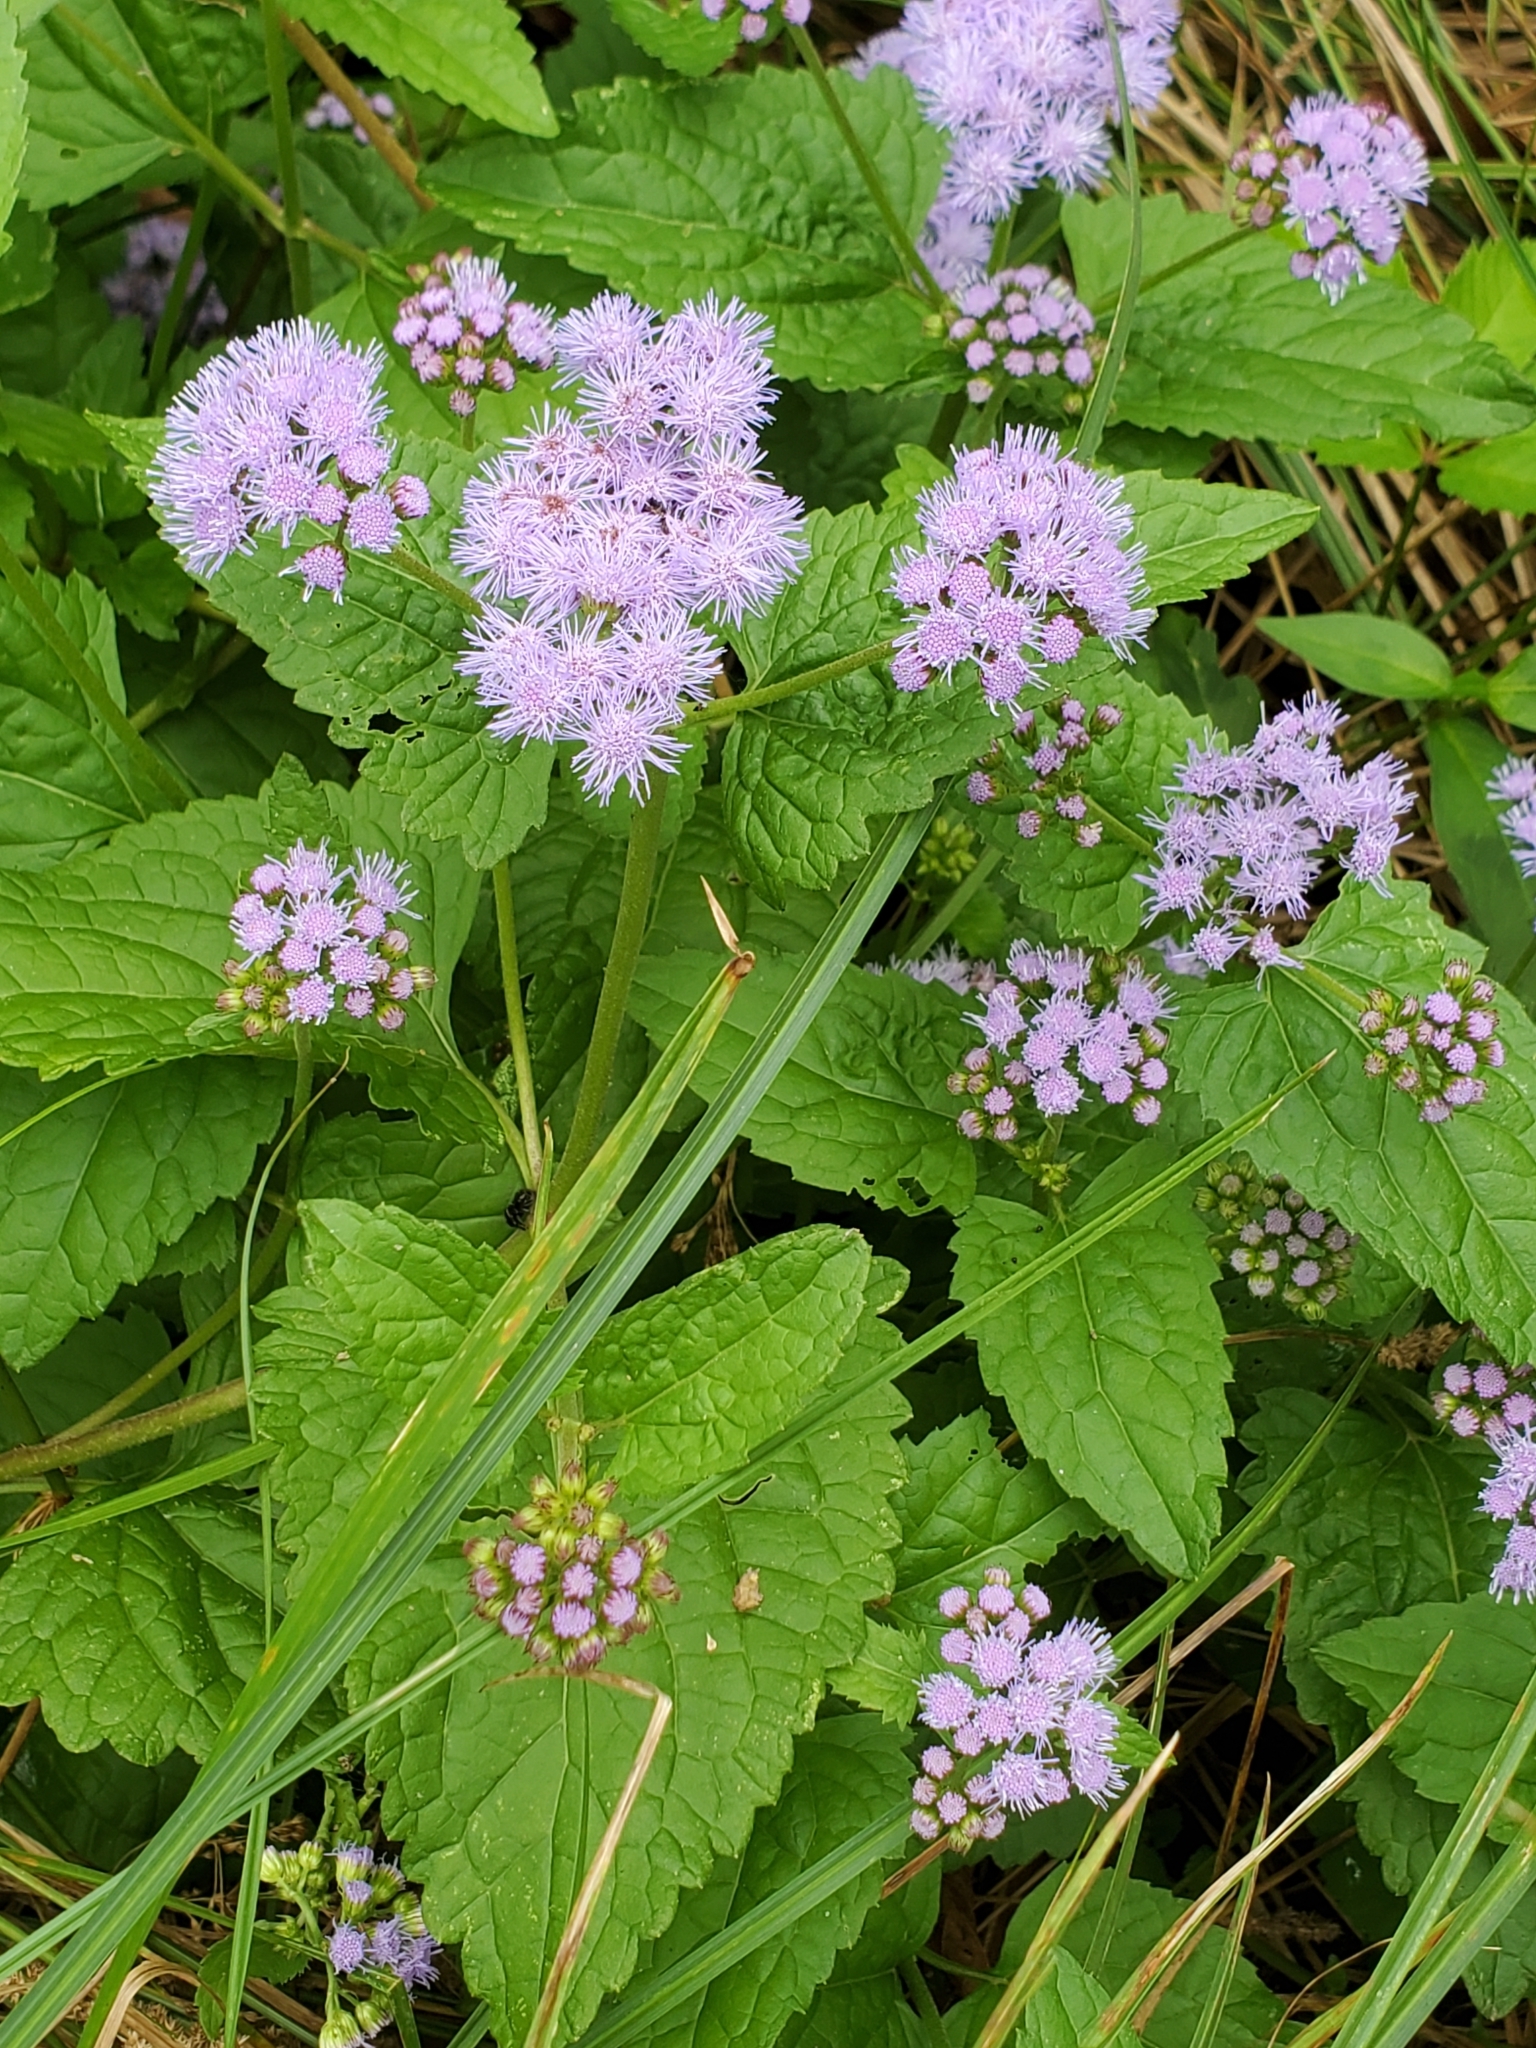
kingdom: Plantae
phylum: Tracheophyta
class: Magnoliopsida
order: Asterales
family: Asteraceae
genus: Conoclinium
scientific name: Conoclinium coelestinum
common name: Blue mistflower
